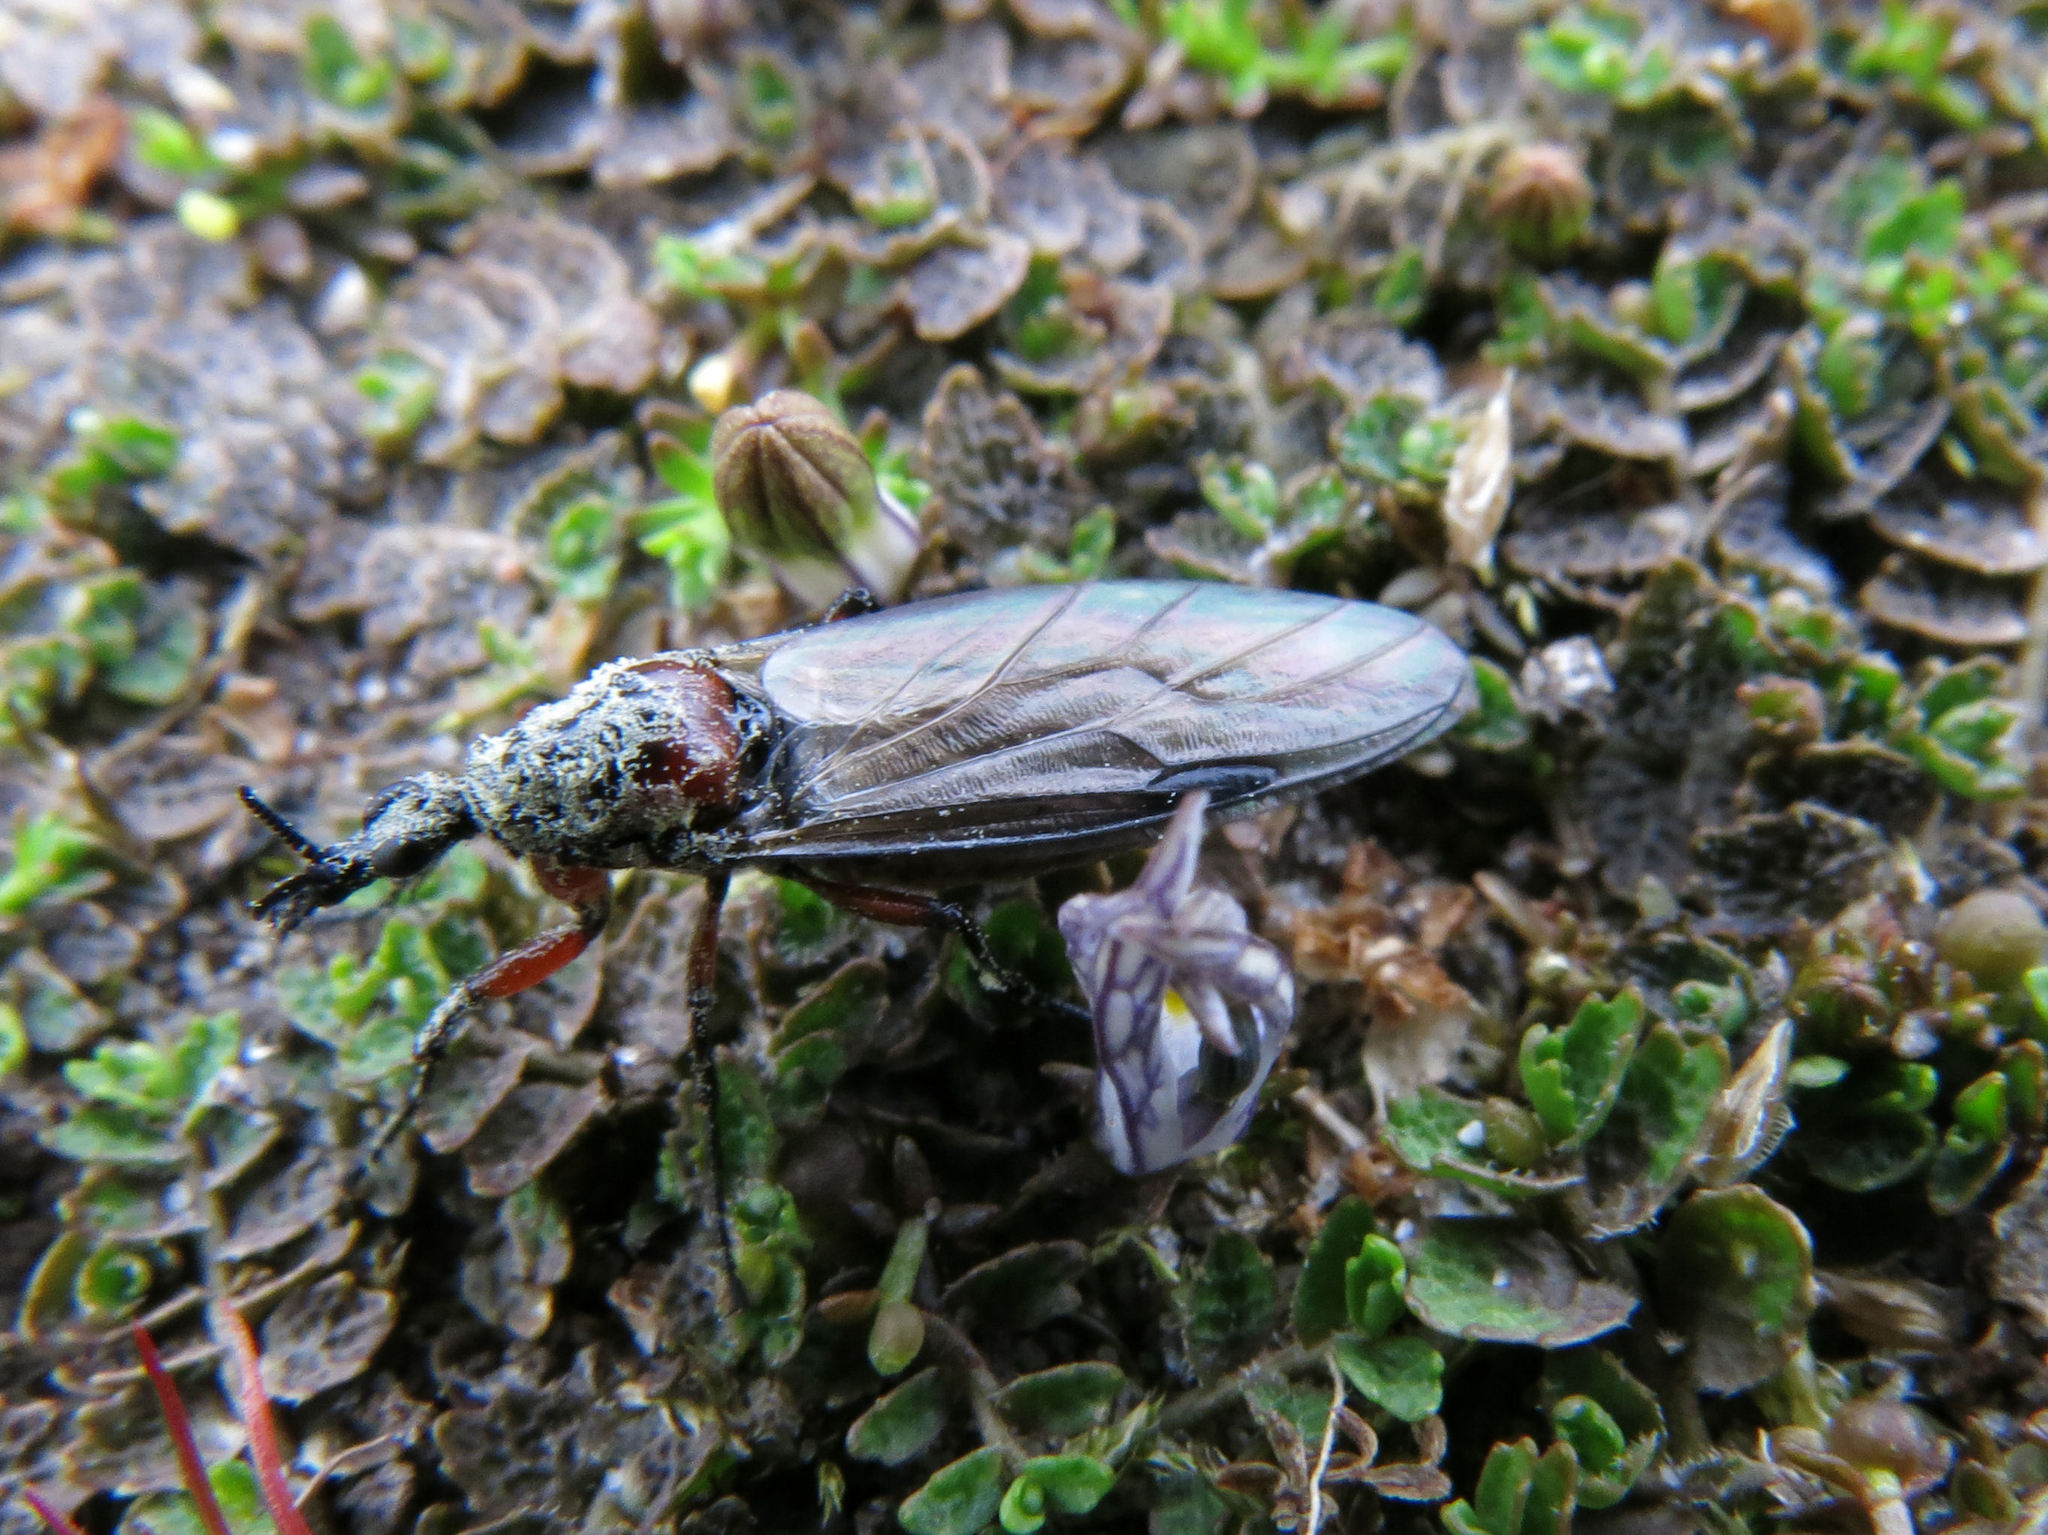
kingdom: Animalia
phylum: Arthropoda
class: Insecta
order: Diptera
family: Bibionidae
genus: Dilophus
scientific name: Dilophus nigrostigma
